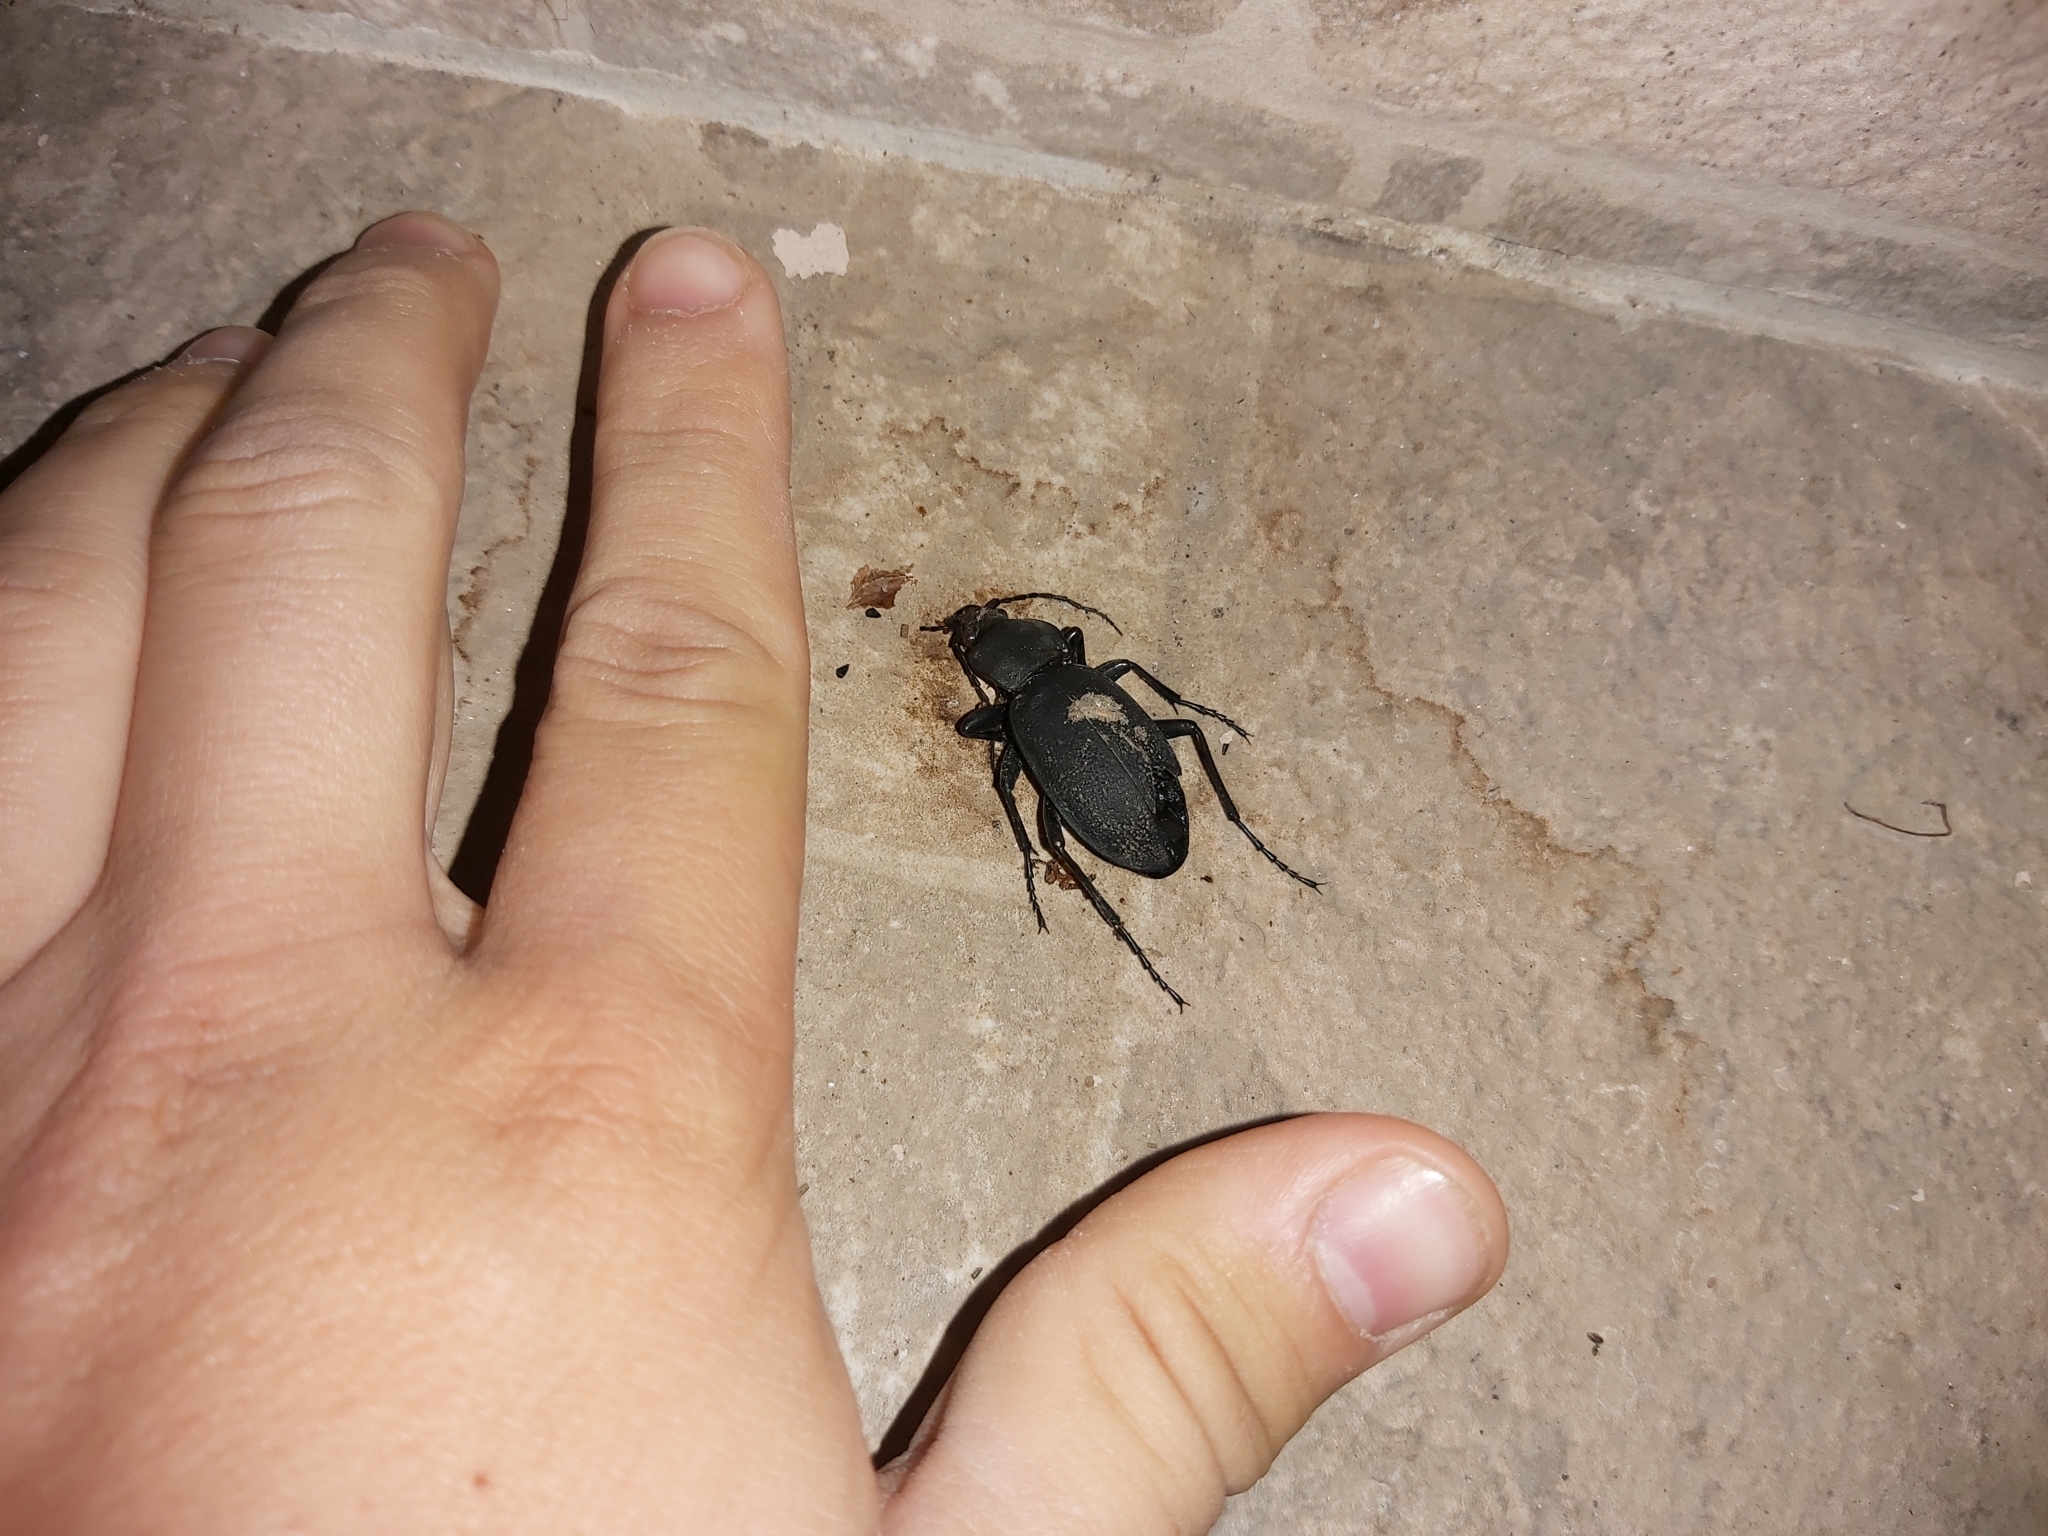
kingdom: Animalia
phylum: Arthropoda
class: Insecta
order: Coleoptera
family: Carabidae
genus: Carabus
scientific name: Carabus coriaceus
